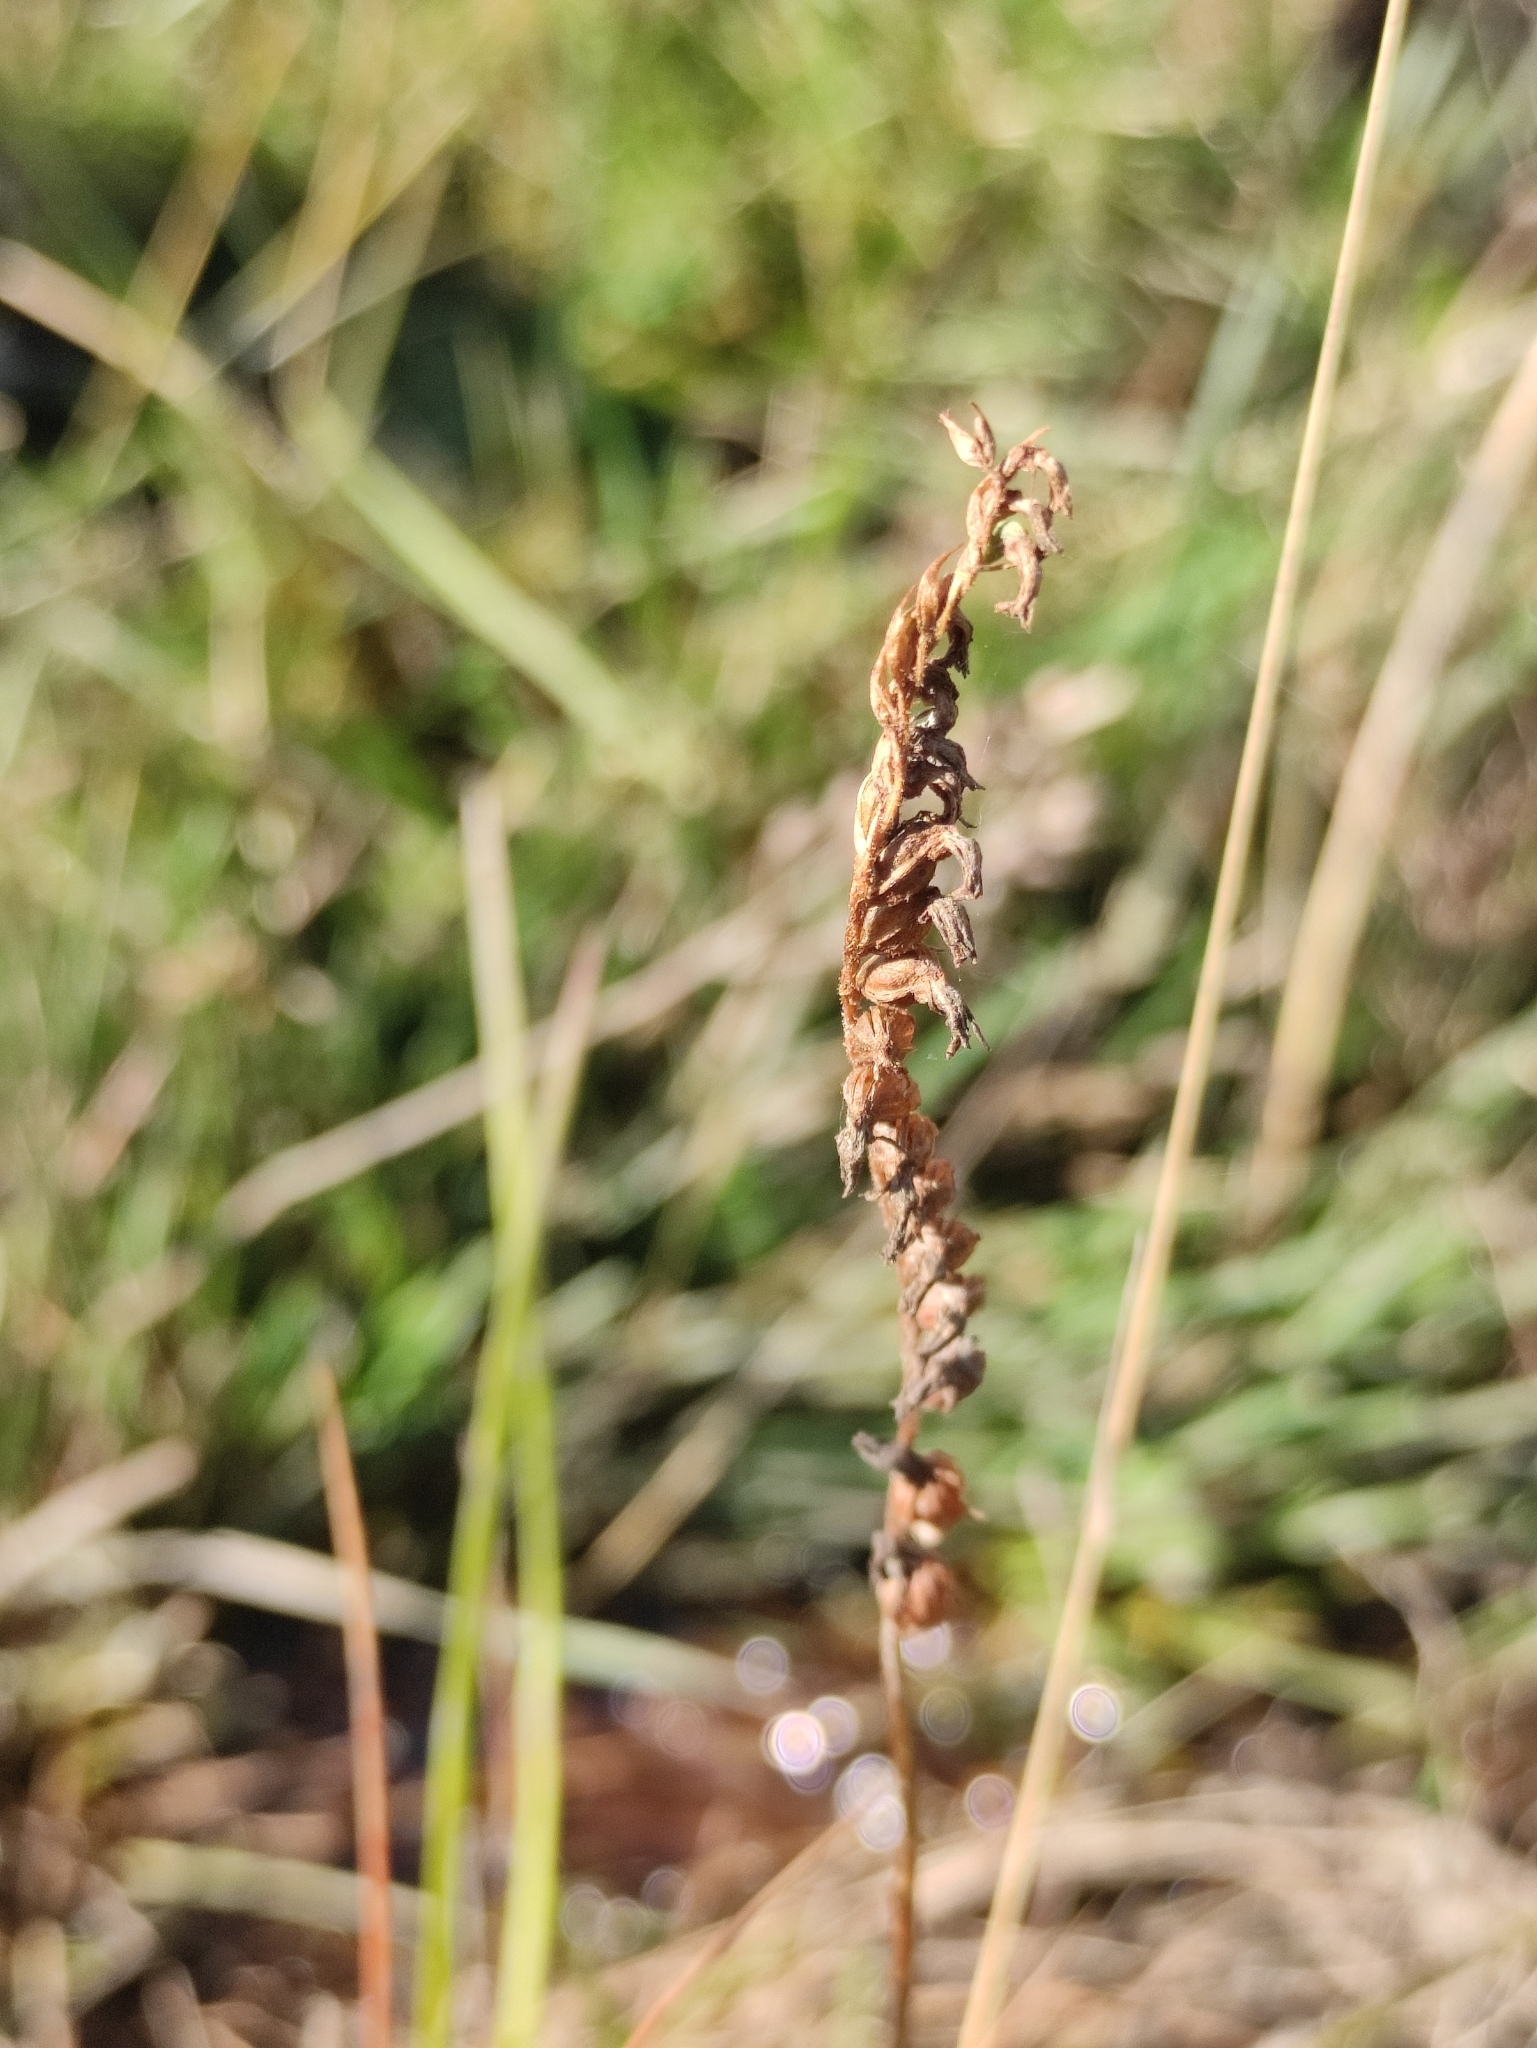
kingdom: Plantae
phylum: Tracheophyta
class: Liliopsida
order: Asparagales
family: Orchidaceae
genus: Spiranthes
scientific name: Spiranthes australis
